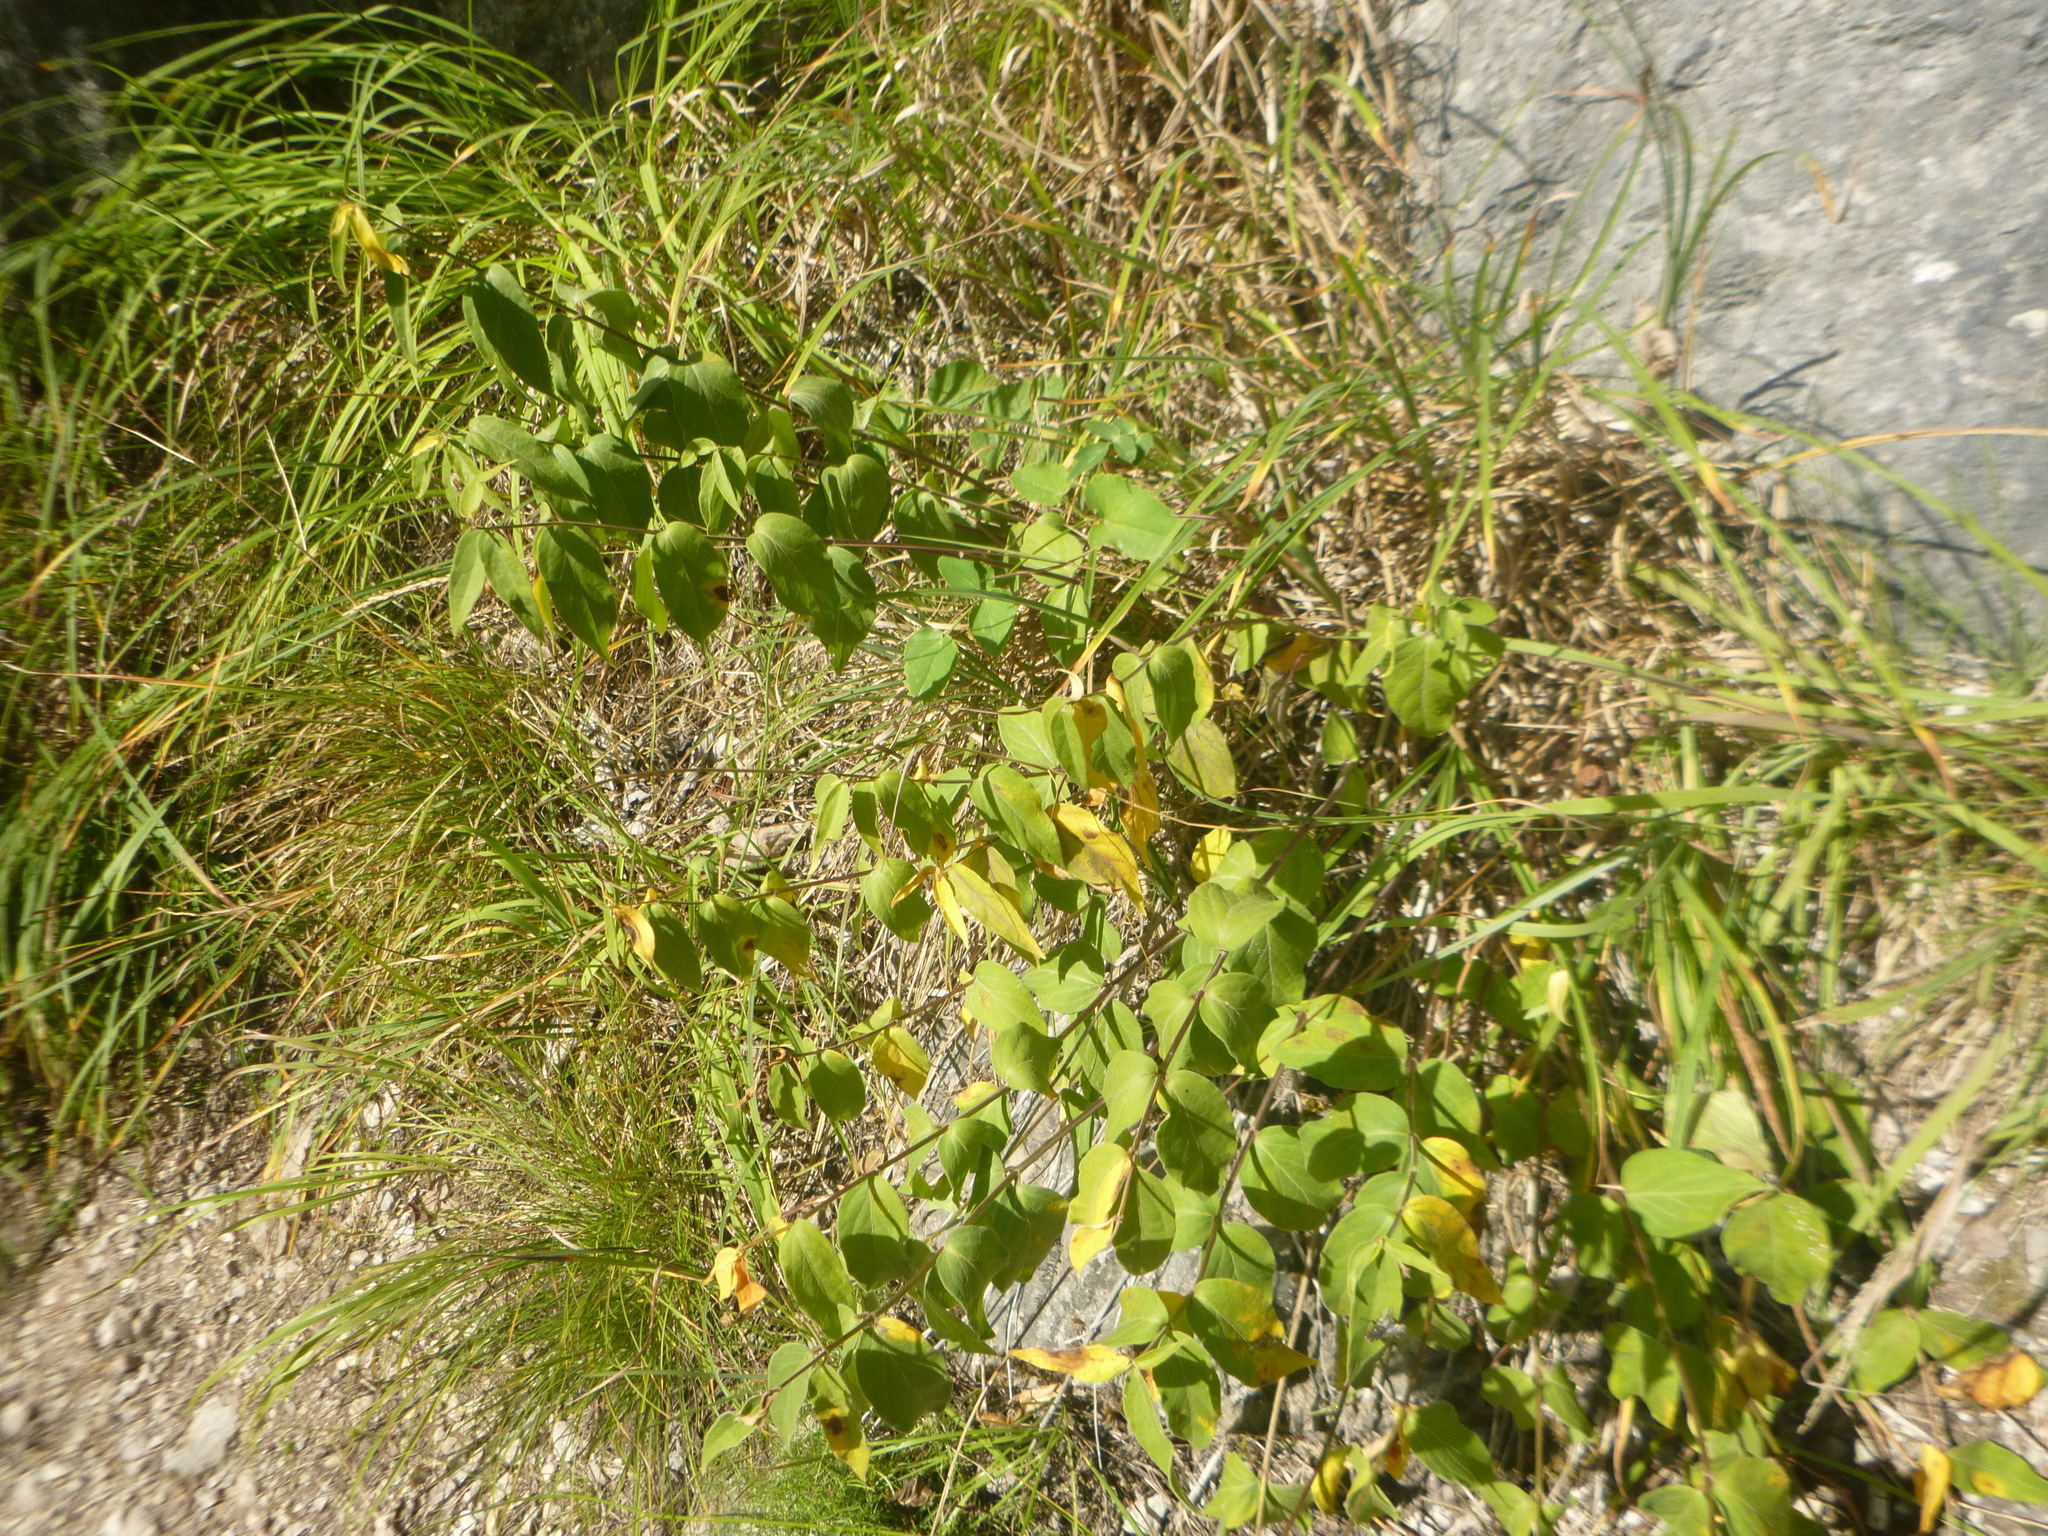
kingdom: Plantae
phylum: Tracheophyta
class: Magnoliopsida
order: Gentianales
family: Apocynaceae
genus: Vincetoxicum
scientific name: Vincetoxicum hirundinaria
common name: White swallowwort
